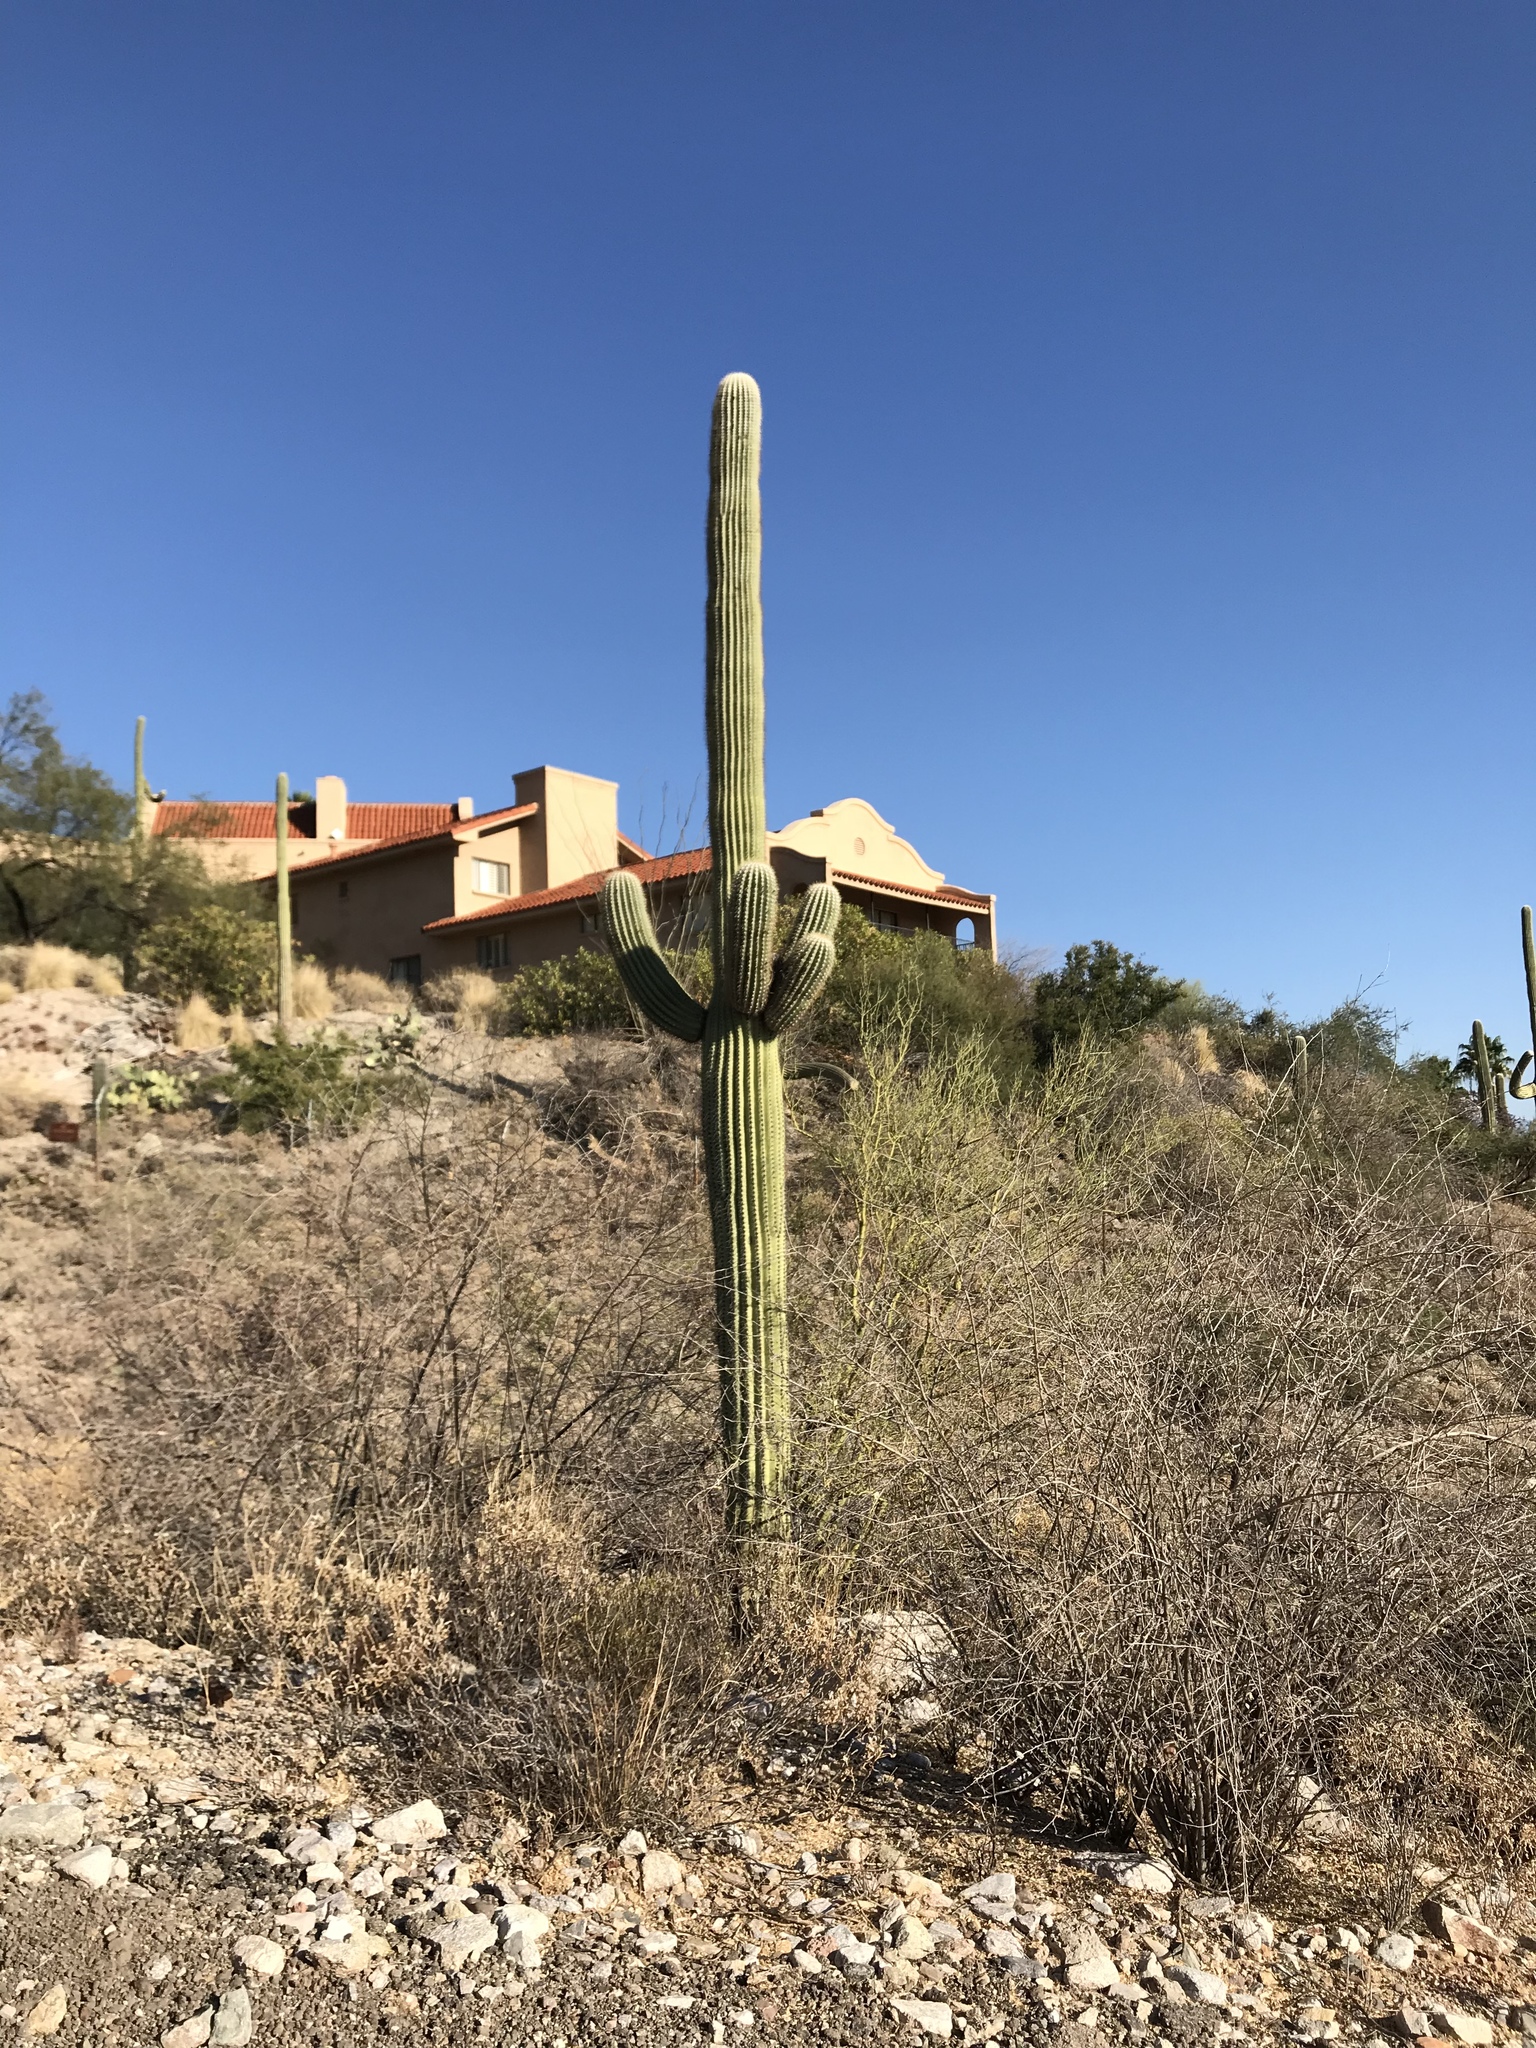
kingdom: Plantae
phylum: Tracheophyta
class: Magnoliopsida
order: Caryophyllales
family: Cactaceae
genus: Carnegiea
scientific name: Carnegiea gigantea
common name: Saguaro
